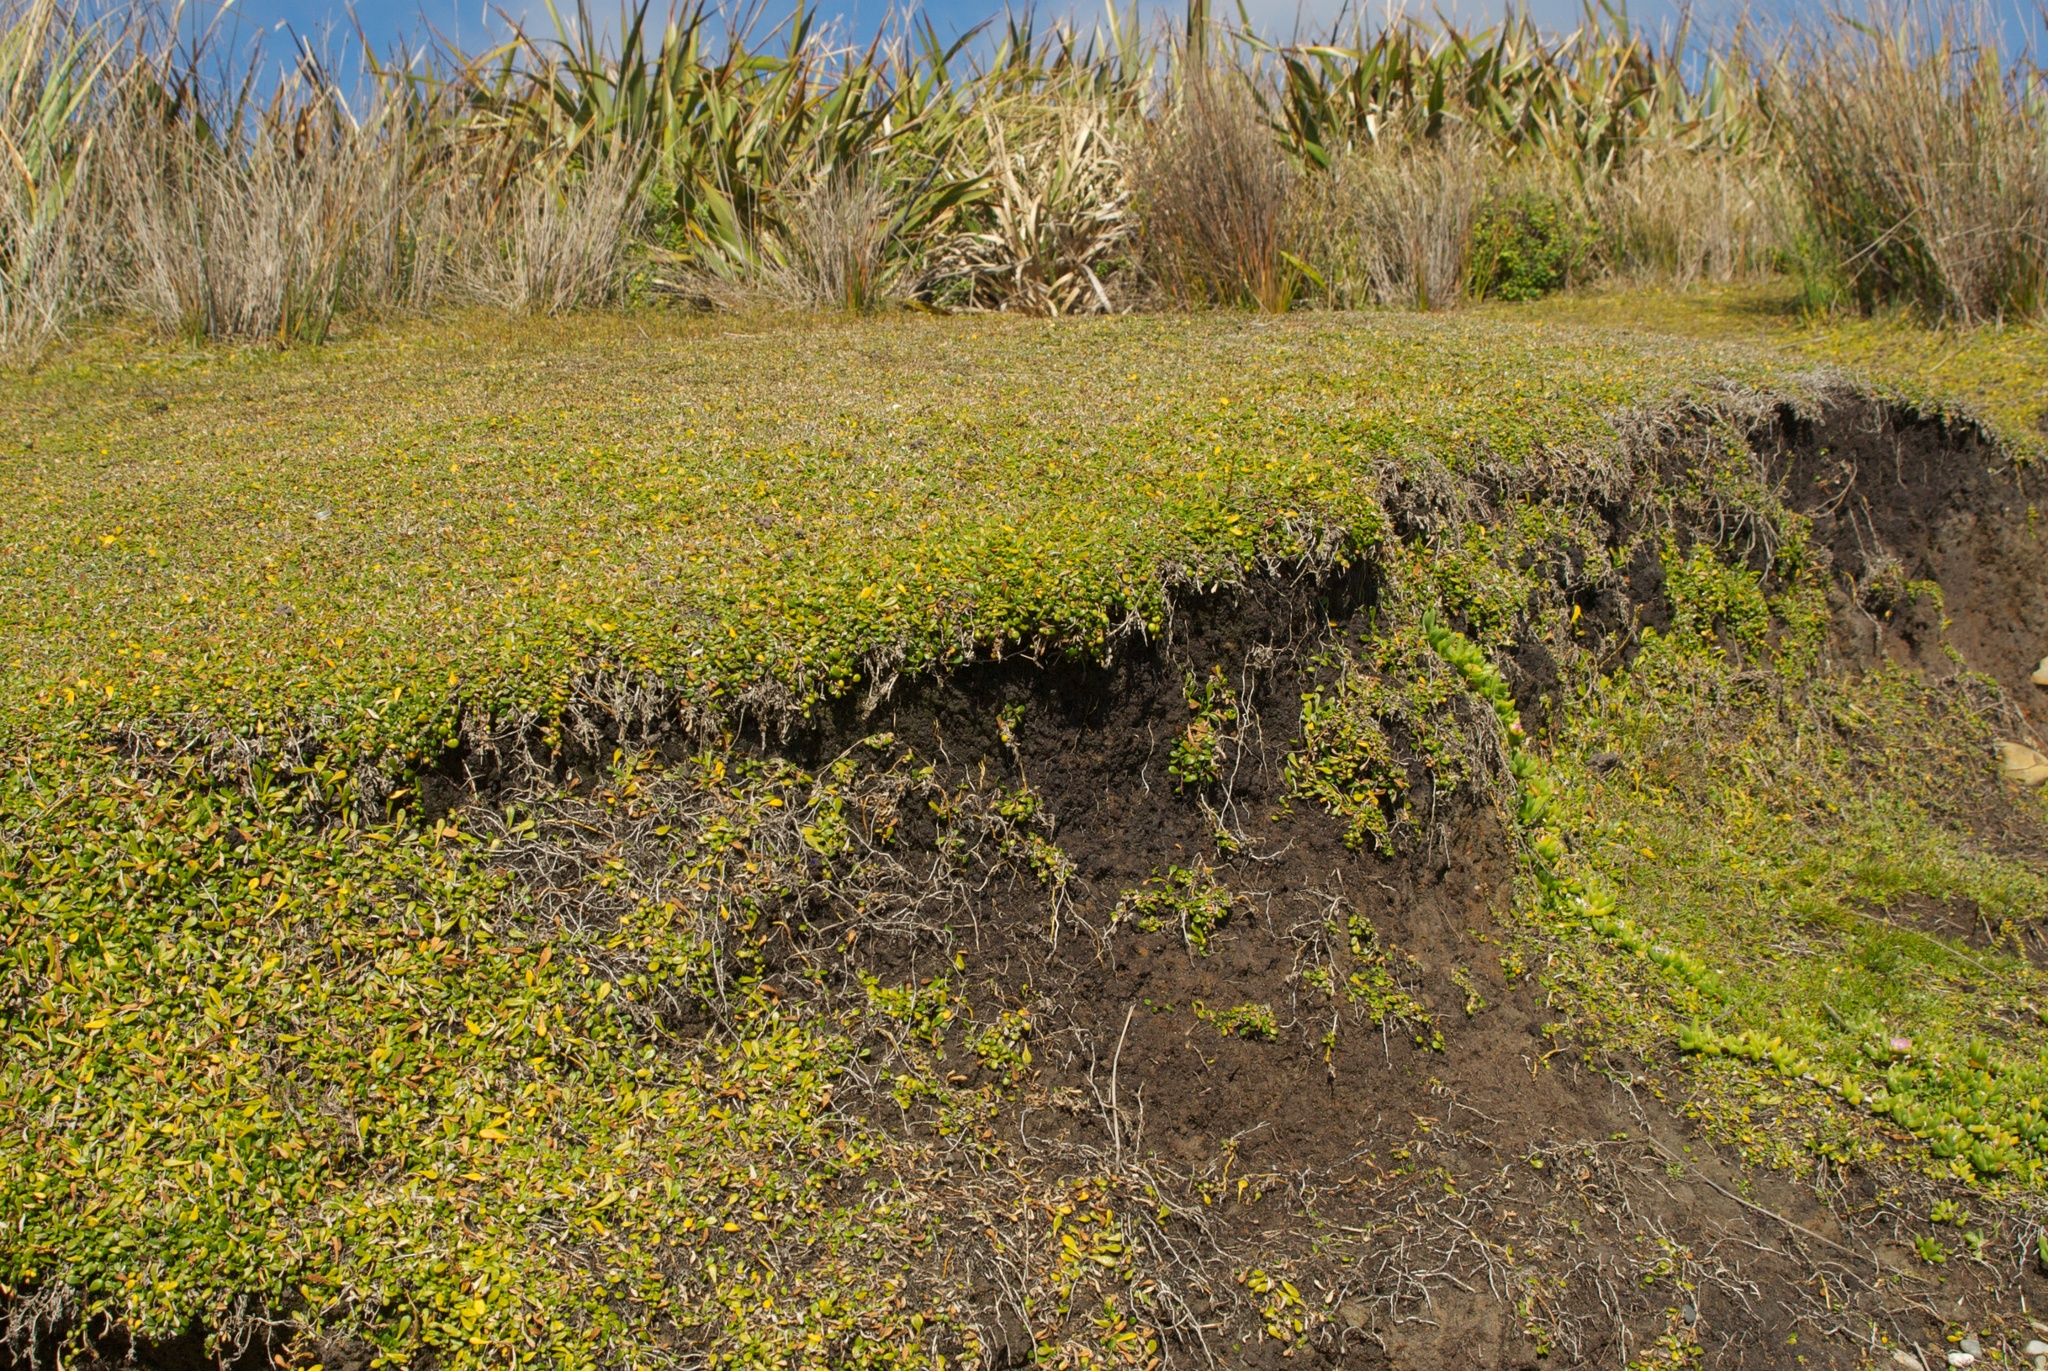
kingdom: Plantae
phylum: Tracheophyta
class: Magnoliopsida
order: Asterales
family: Goodeniaceae
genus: Goodenia
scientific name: Goodenia radicans
